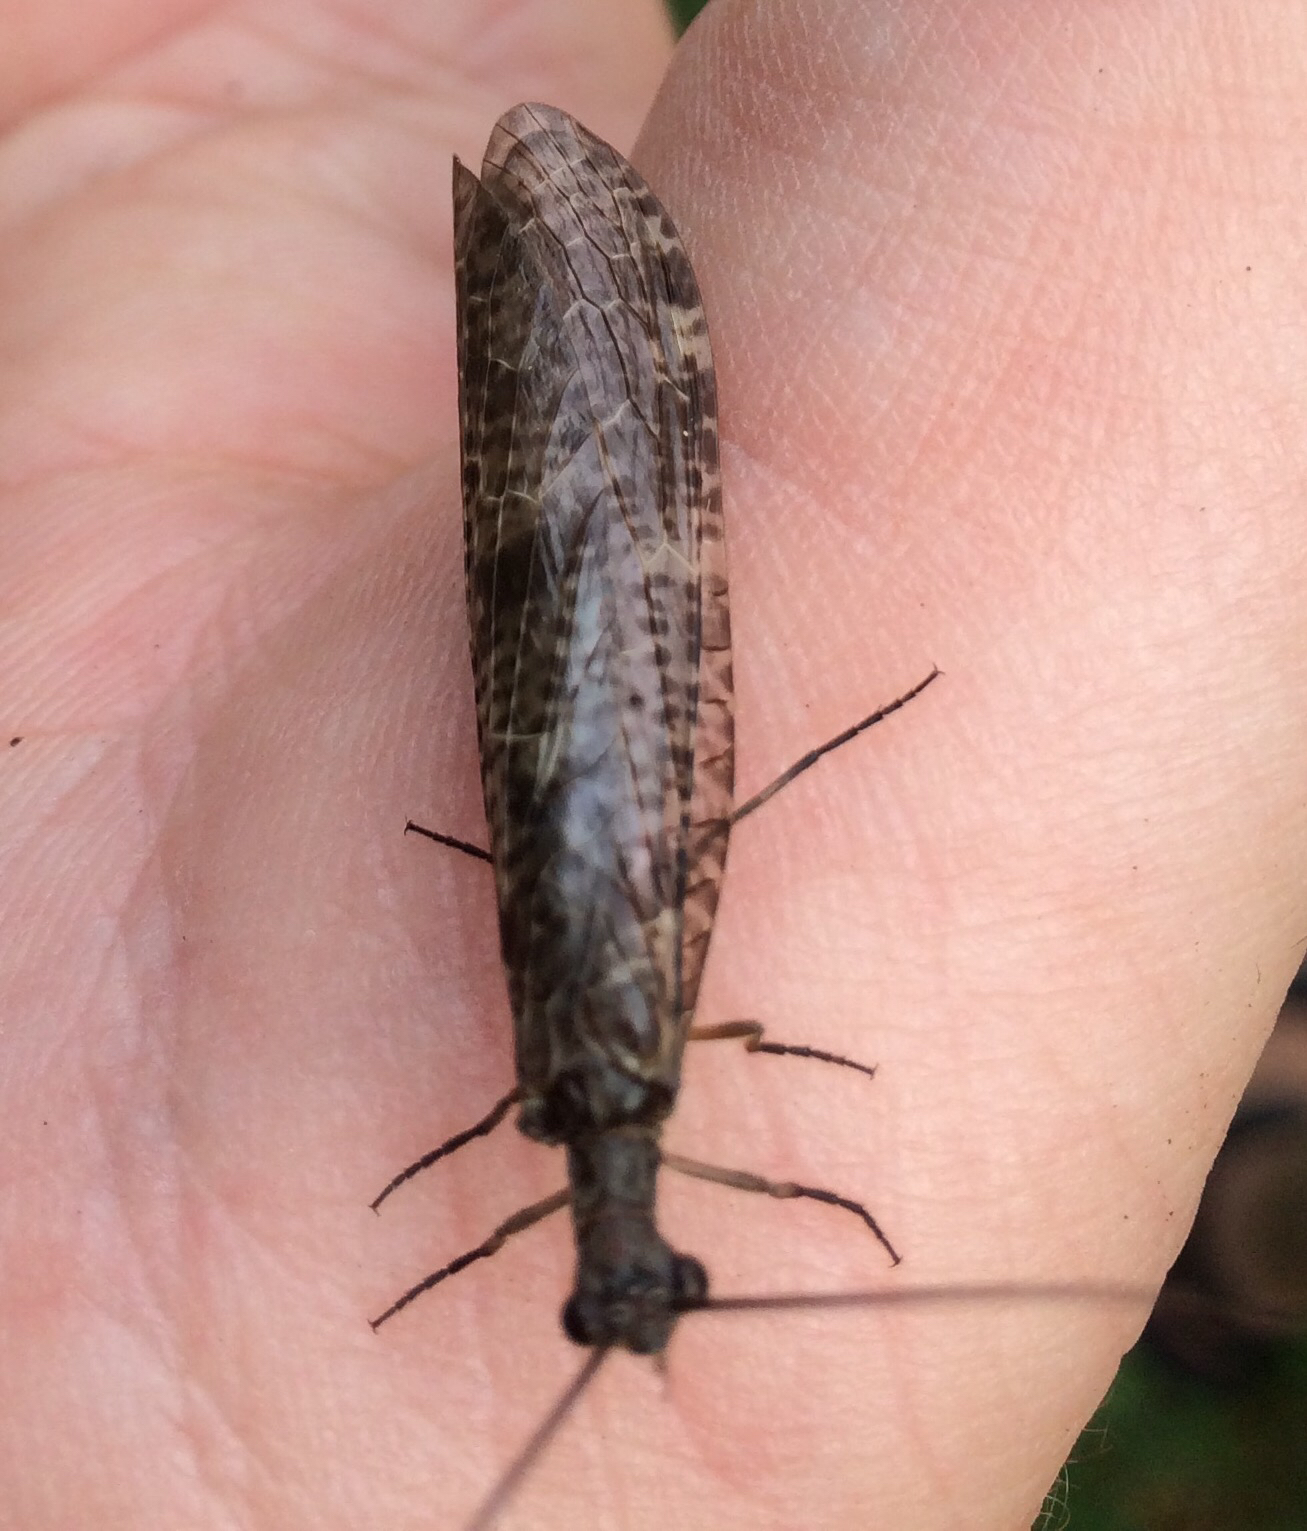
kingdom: Animalia
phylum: Arthropoda
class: Insecta
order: Megaloptera
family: Corydalidae
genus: Archichauliodes
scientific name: Archichauliodes diversus
